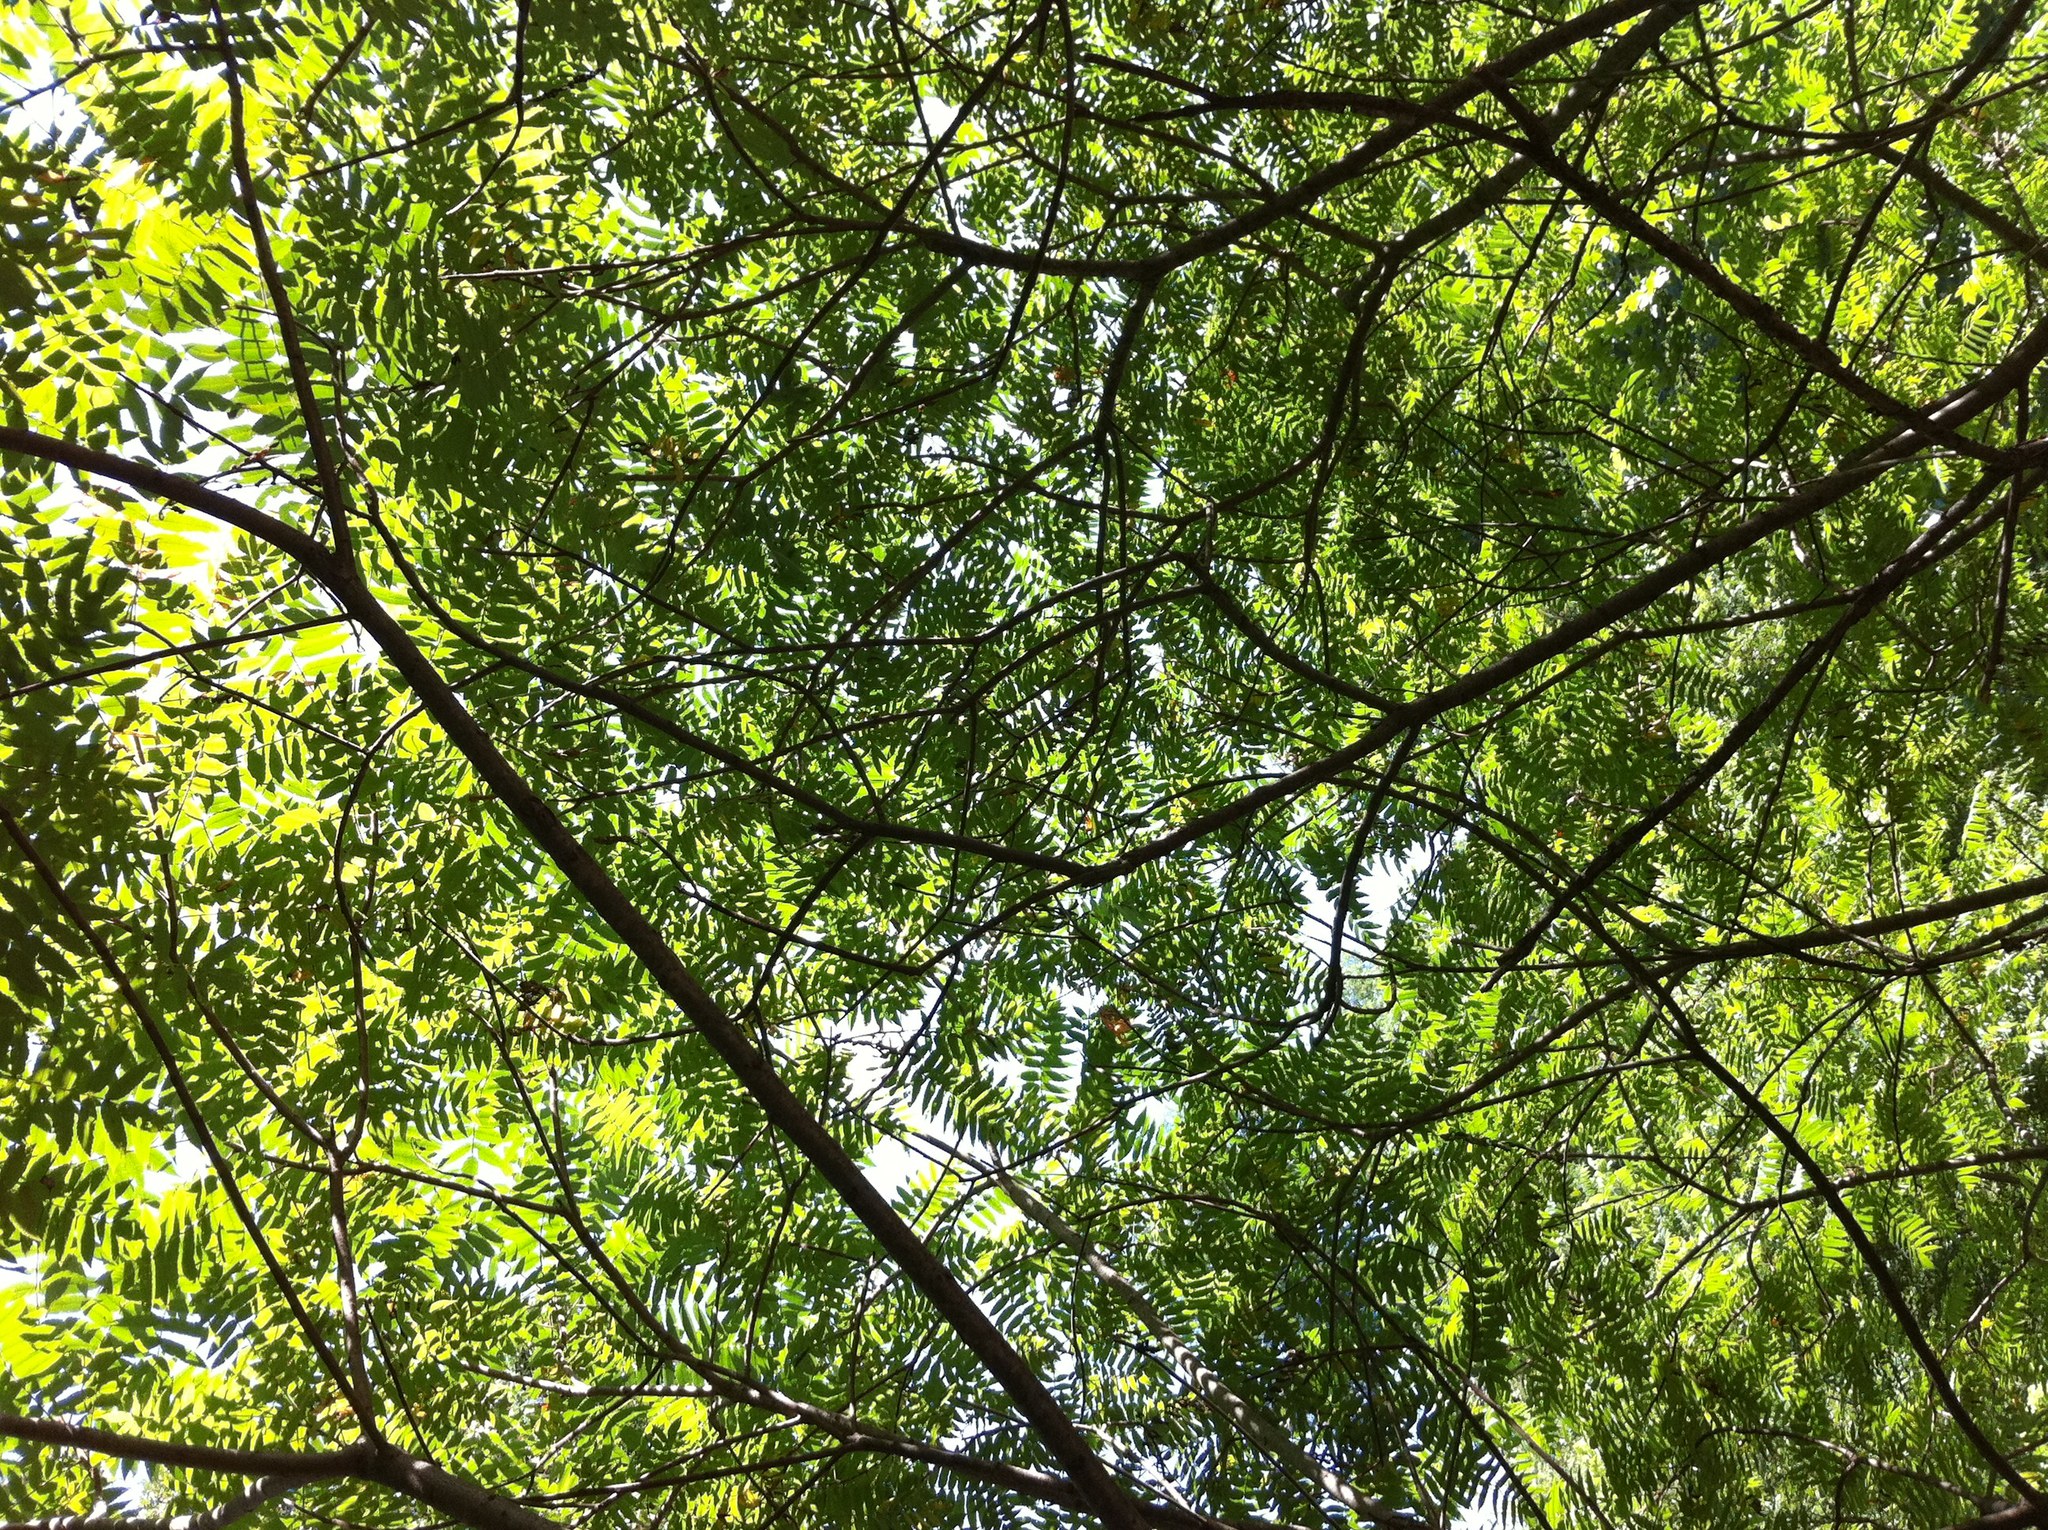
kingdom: Plantae
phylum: Tracheophyta
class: Magnoliopsida
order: Sapindales
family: Anacardiaceae
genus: Rhus
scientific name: Rhus typhina
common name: Staghorn sumac
